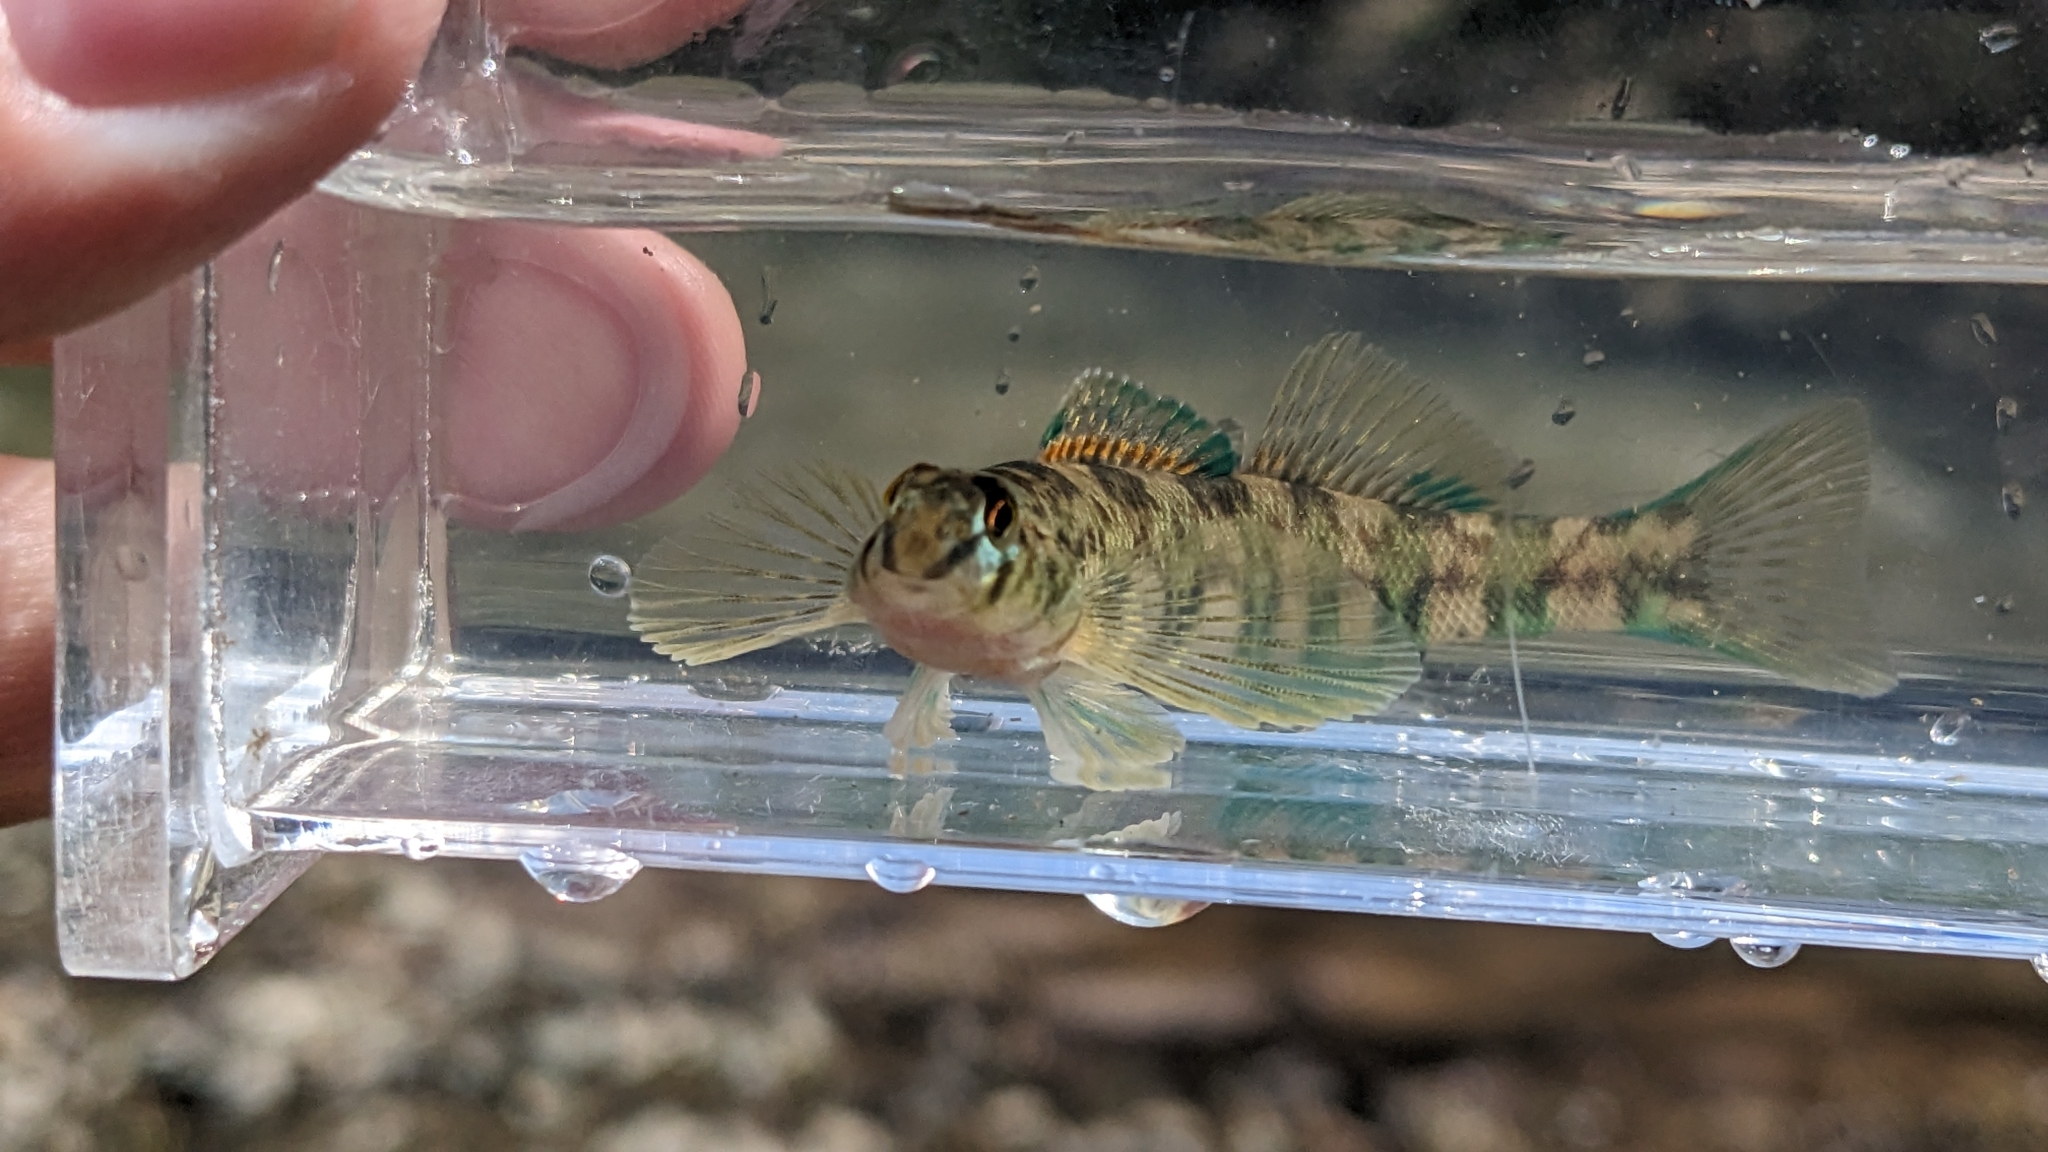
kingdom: Animalia
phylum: Chordata
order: Perciformes
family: Percidae
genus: Etheostoma
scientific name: Etheostoma blennioides
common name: Greenside darter
